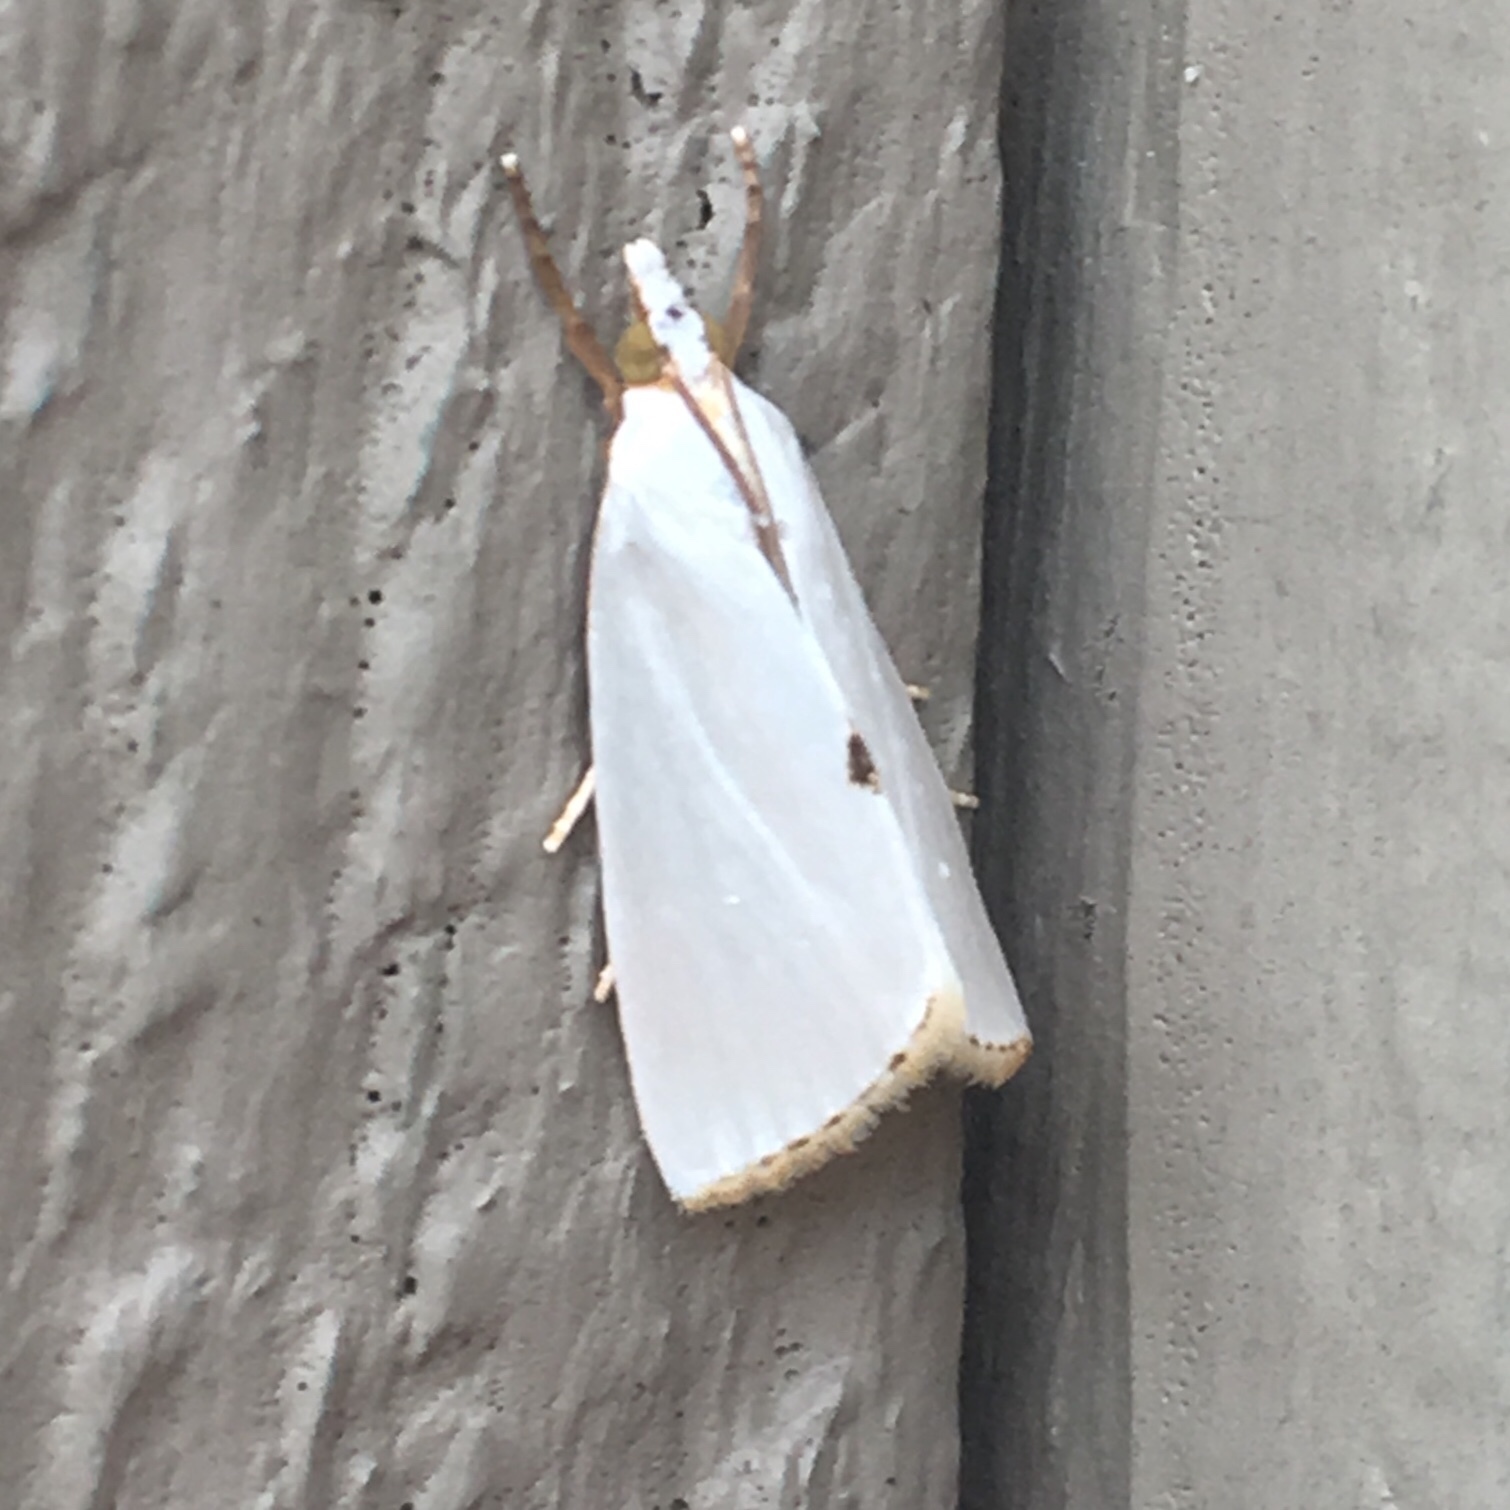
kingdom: Animalia
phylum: Arthropoda
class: Insecta
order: Lepidoptera
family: Crambidae
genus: Argyria
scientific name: Argyria nivalis
